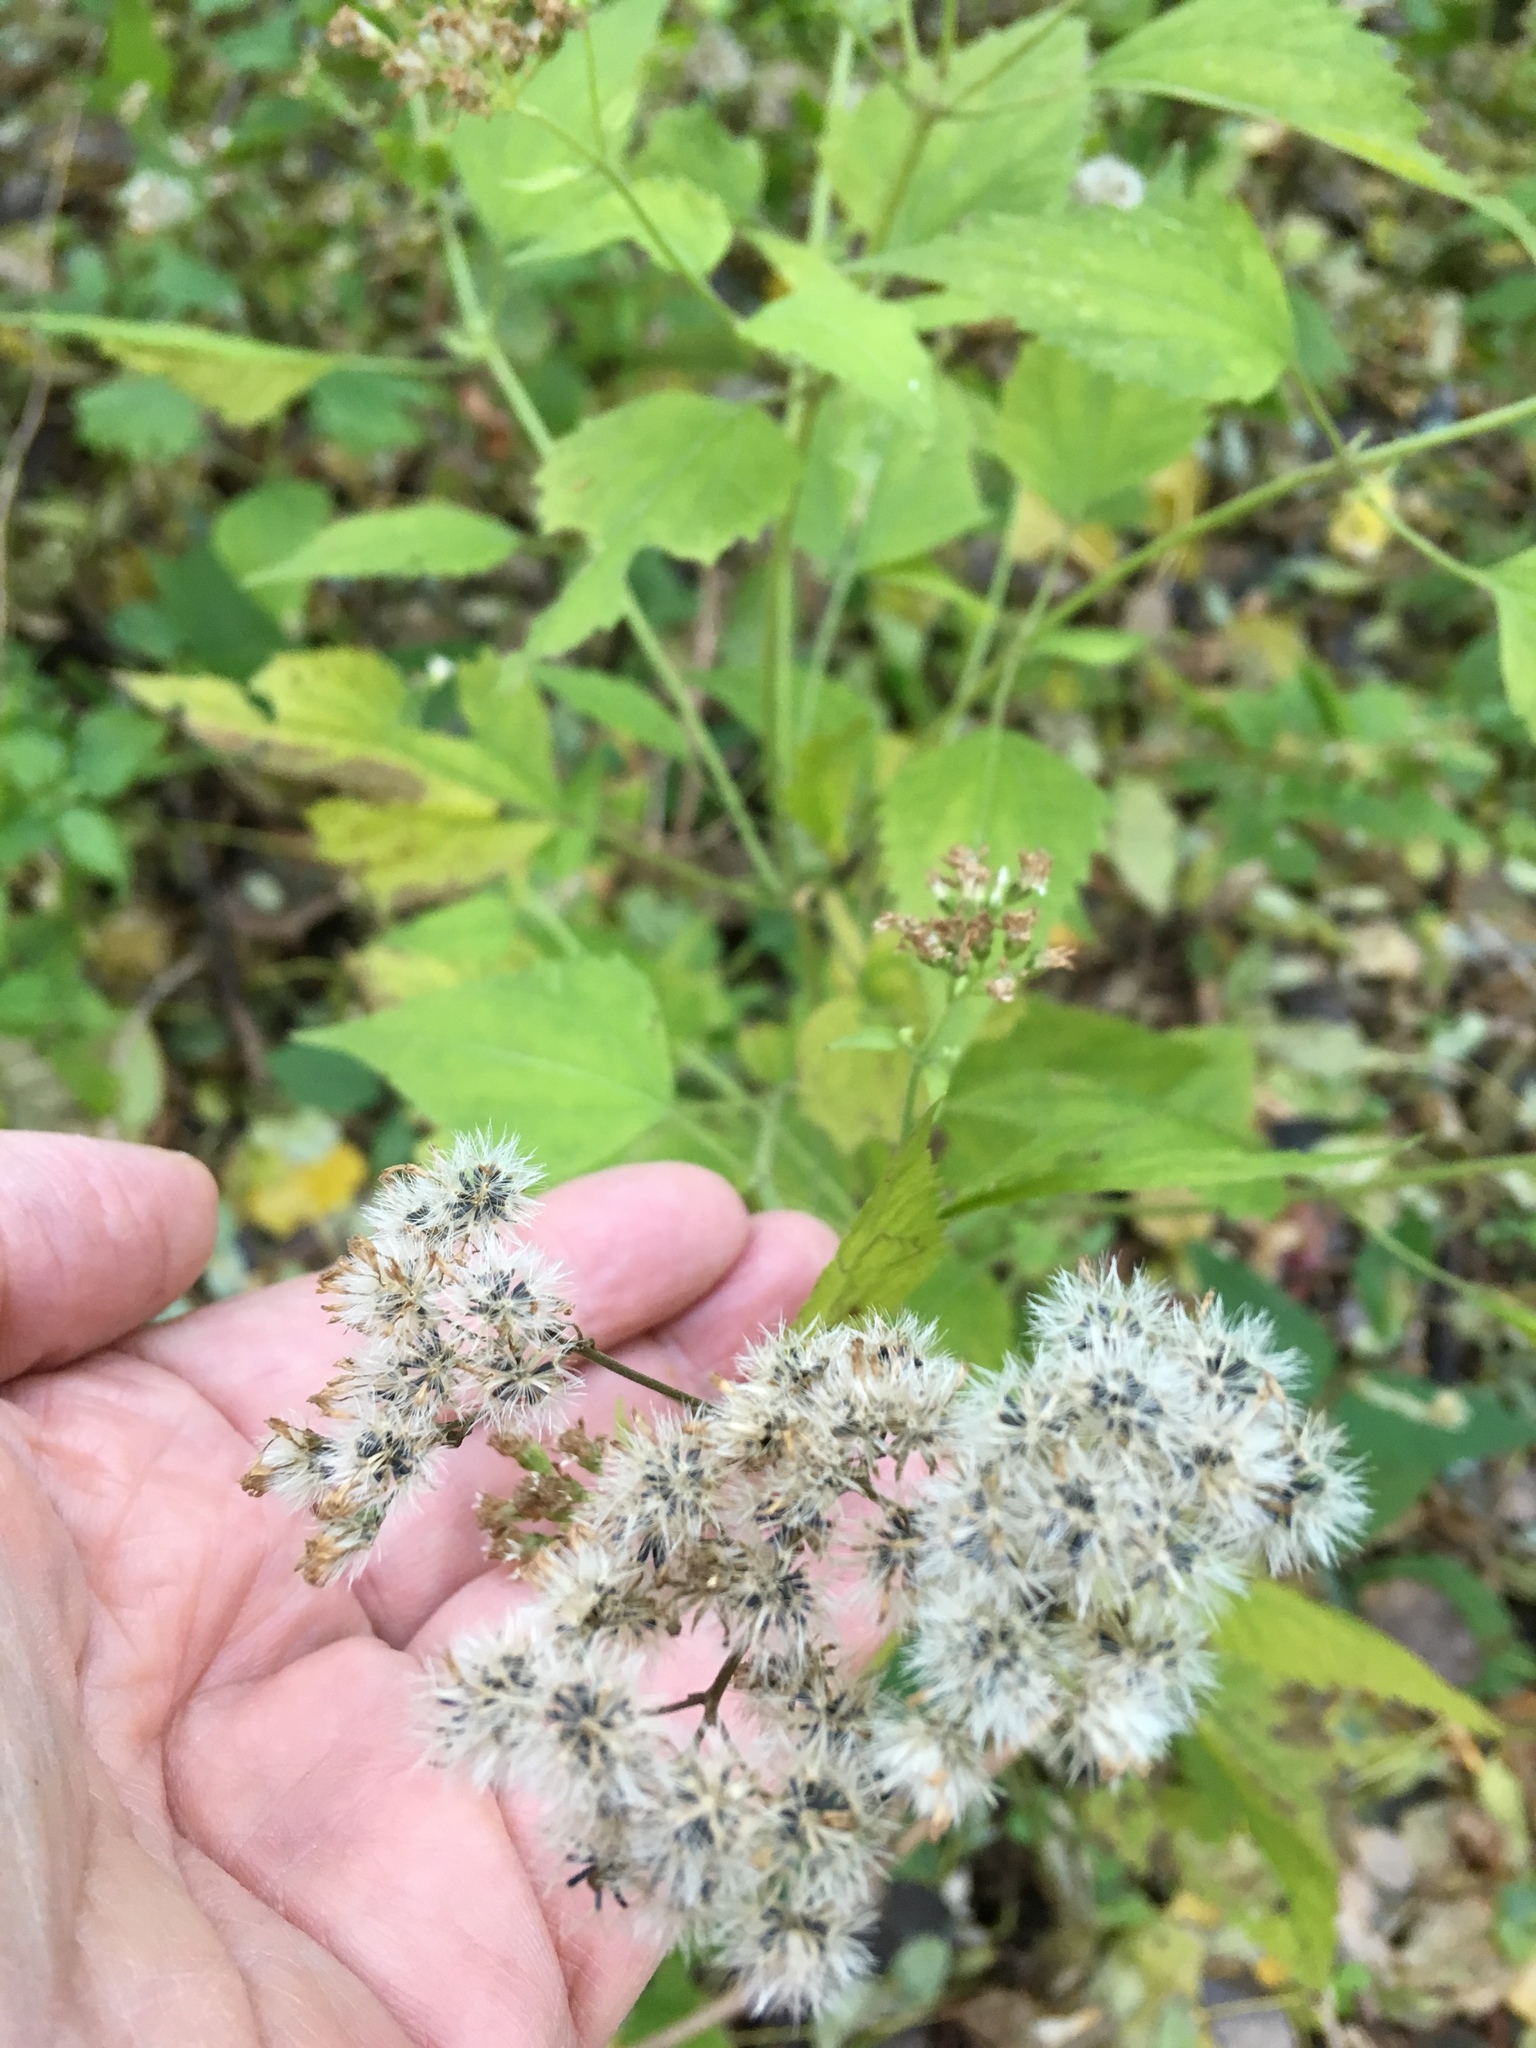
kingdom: Plantae
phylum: Tracheophyta
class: Magnoliopsida
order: Asterales
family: Asteraceae
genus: Ageratina
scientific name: Ageratina altissima
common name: White snakeroot
